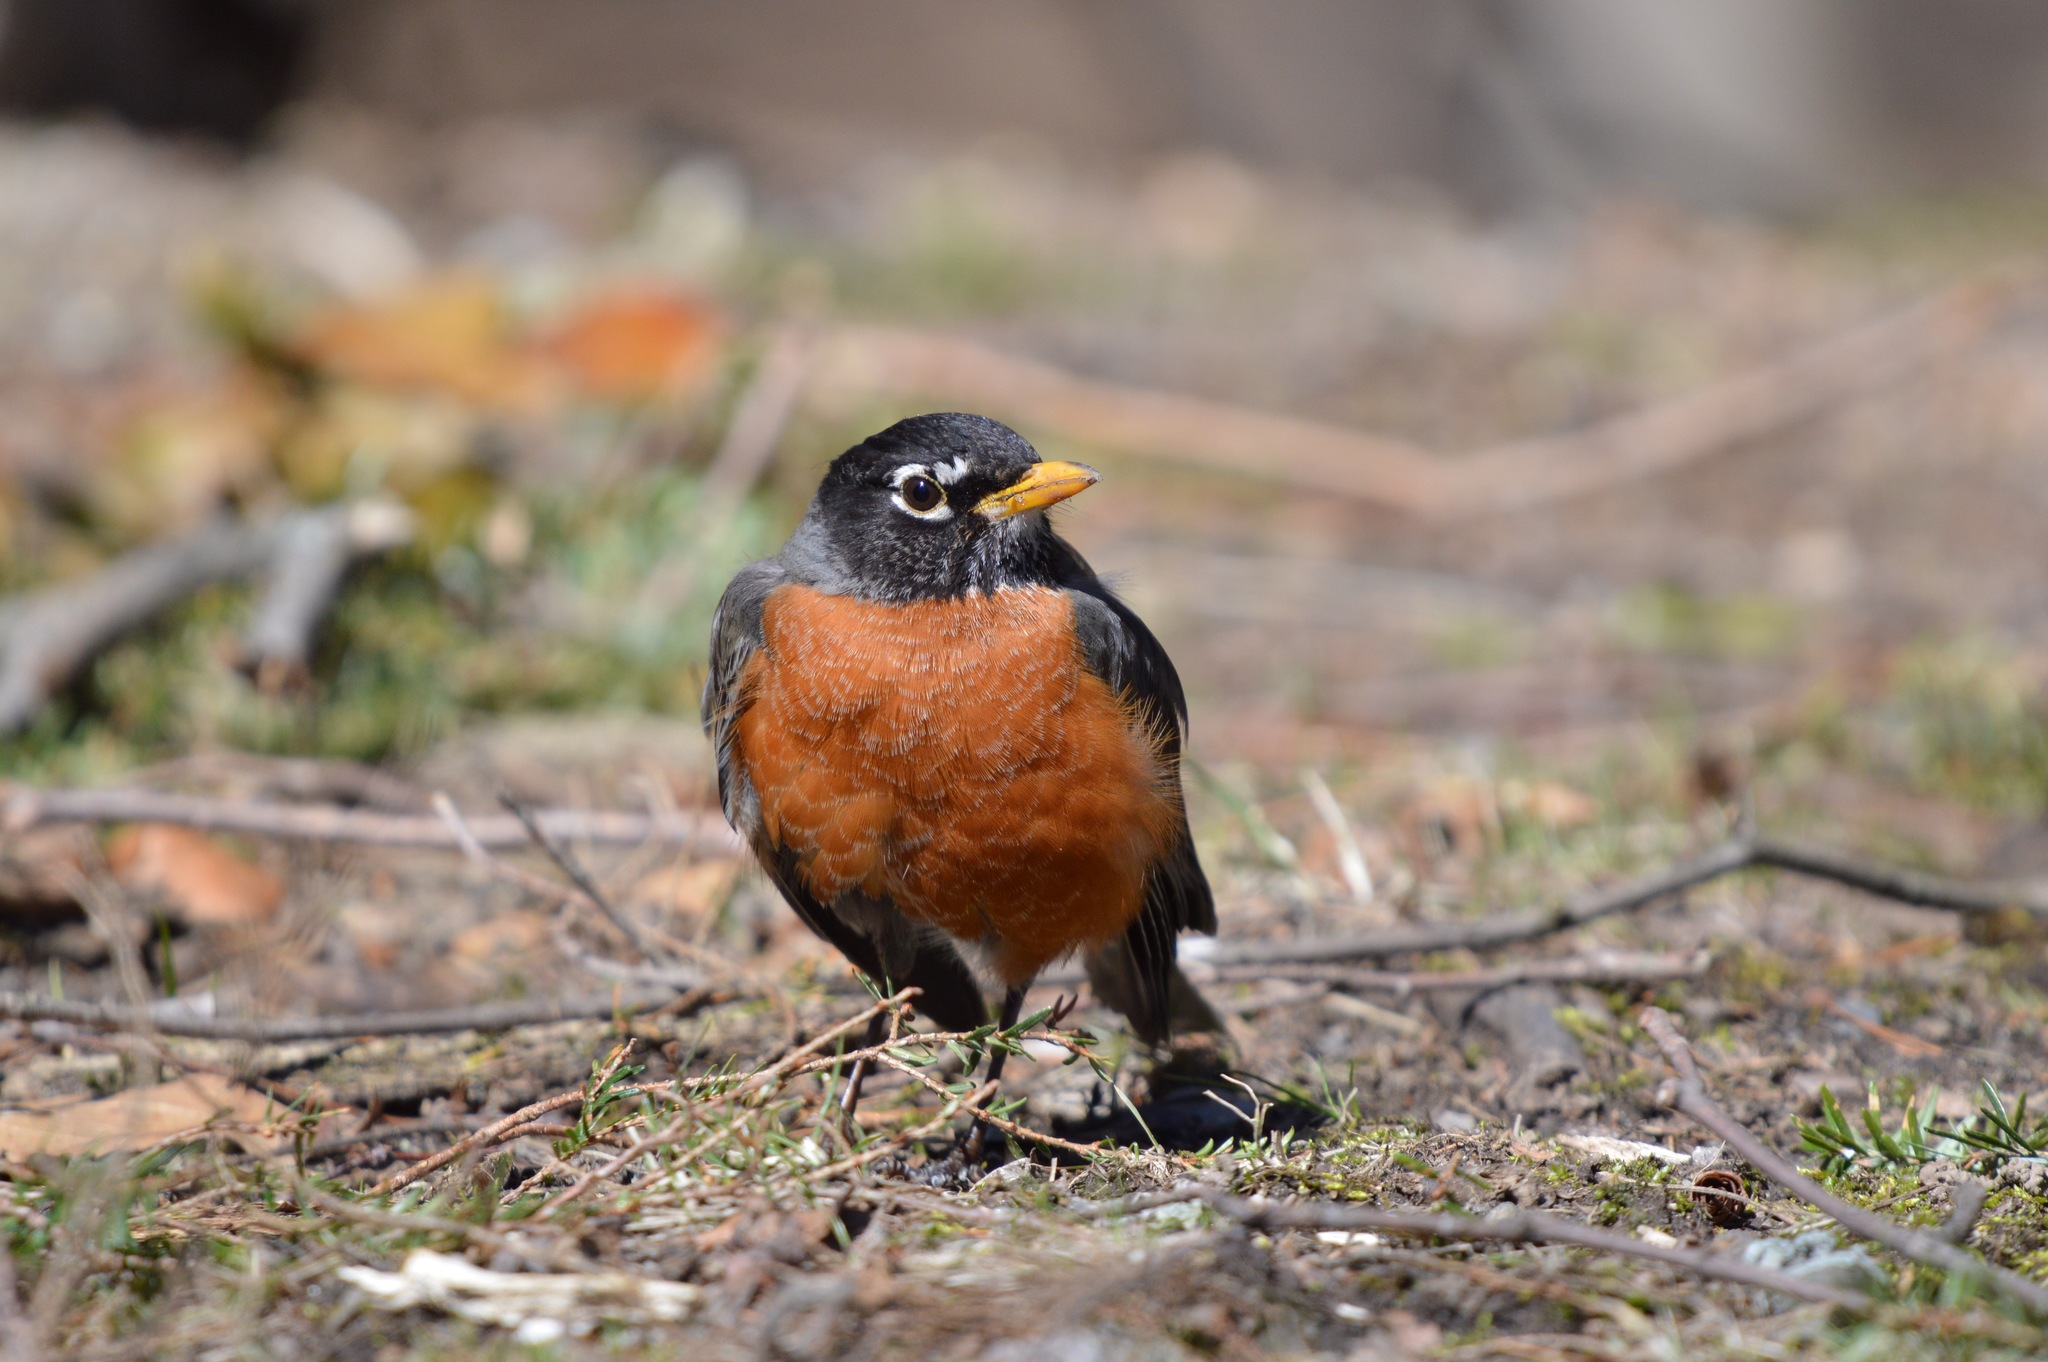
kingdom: Animalia
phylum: Chordata
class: Aves
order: Passeriformes
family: Turdidae
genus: Turdus
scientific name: Turdus migratorius
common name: American robin
